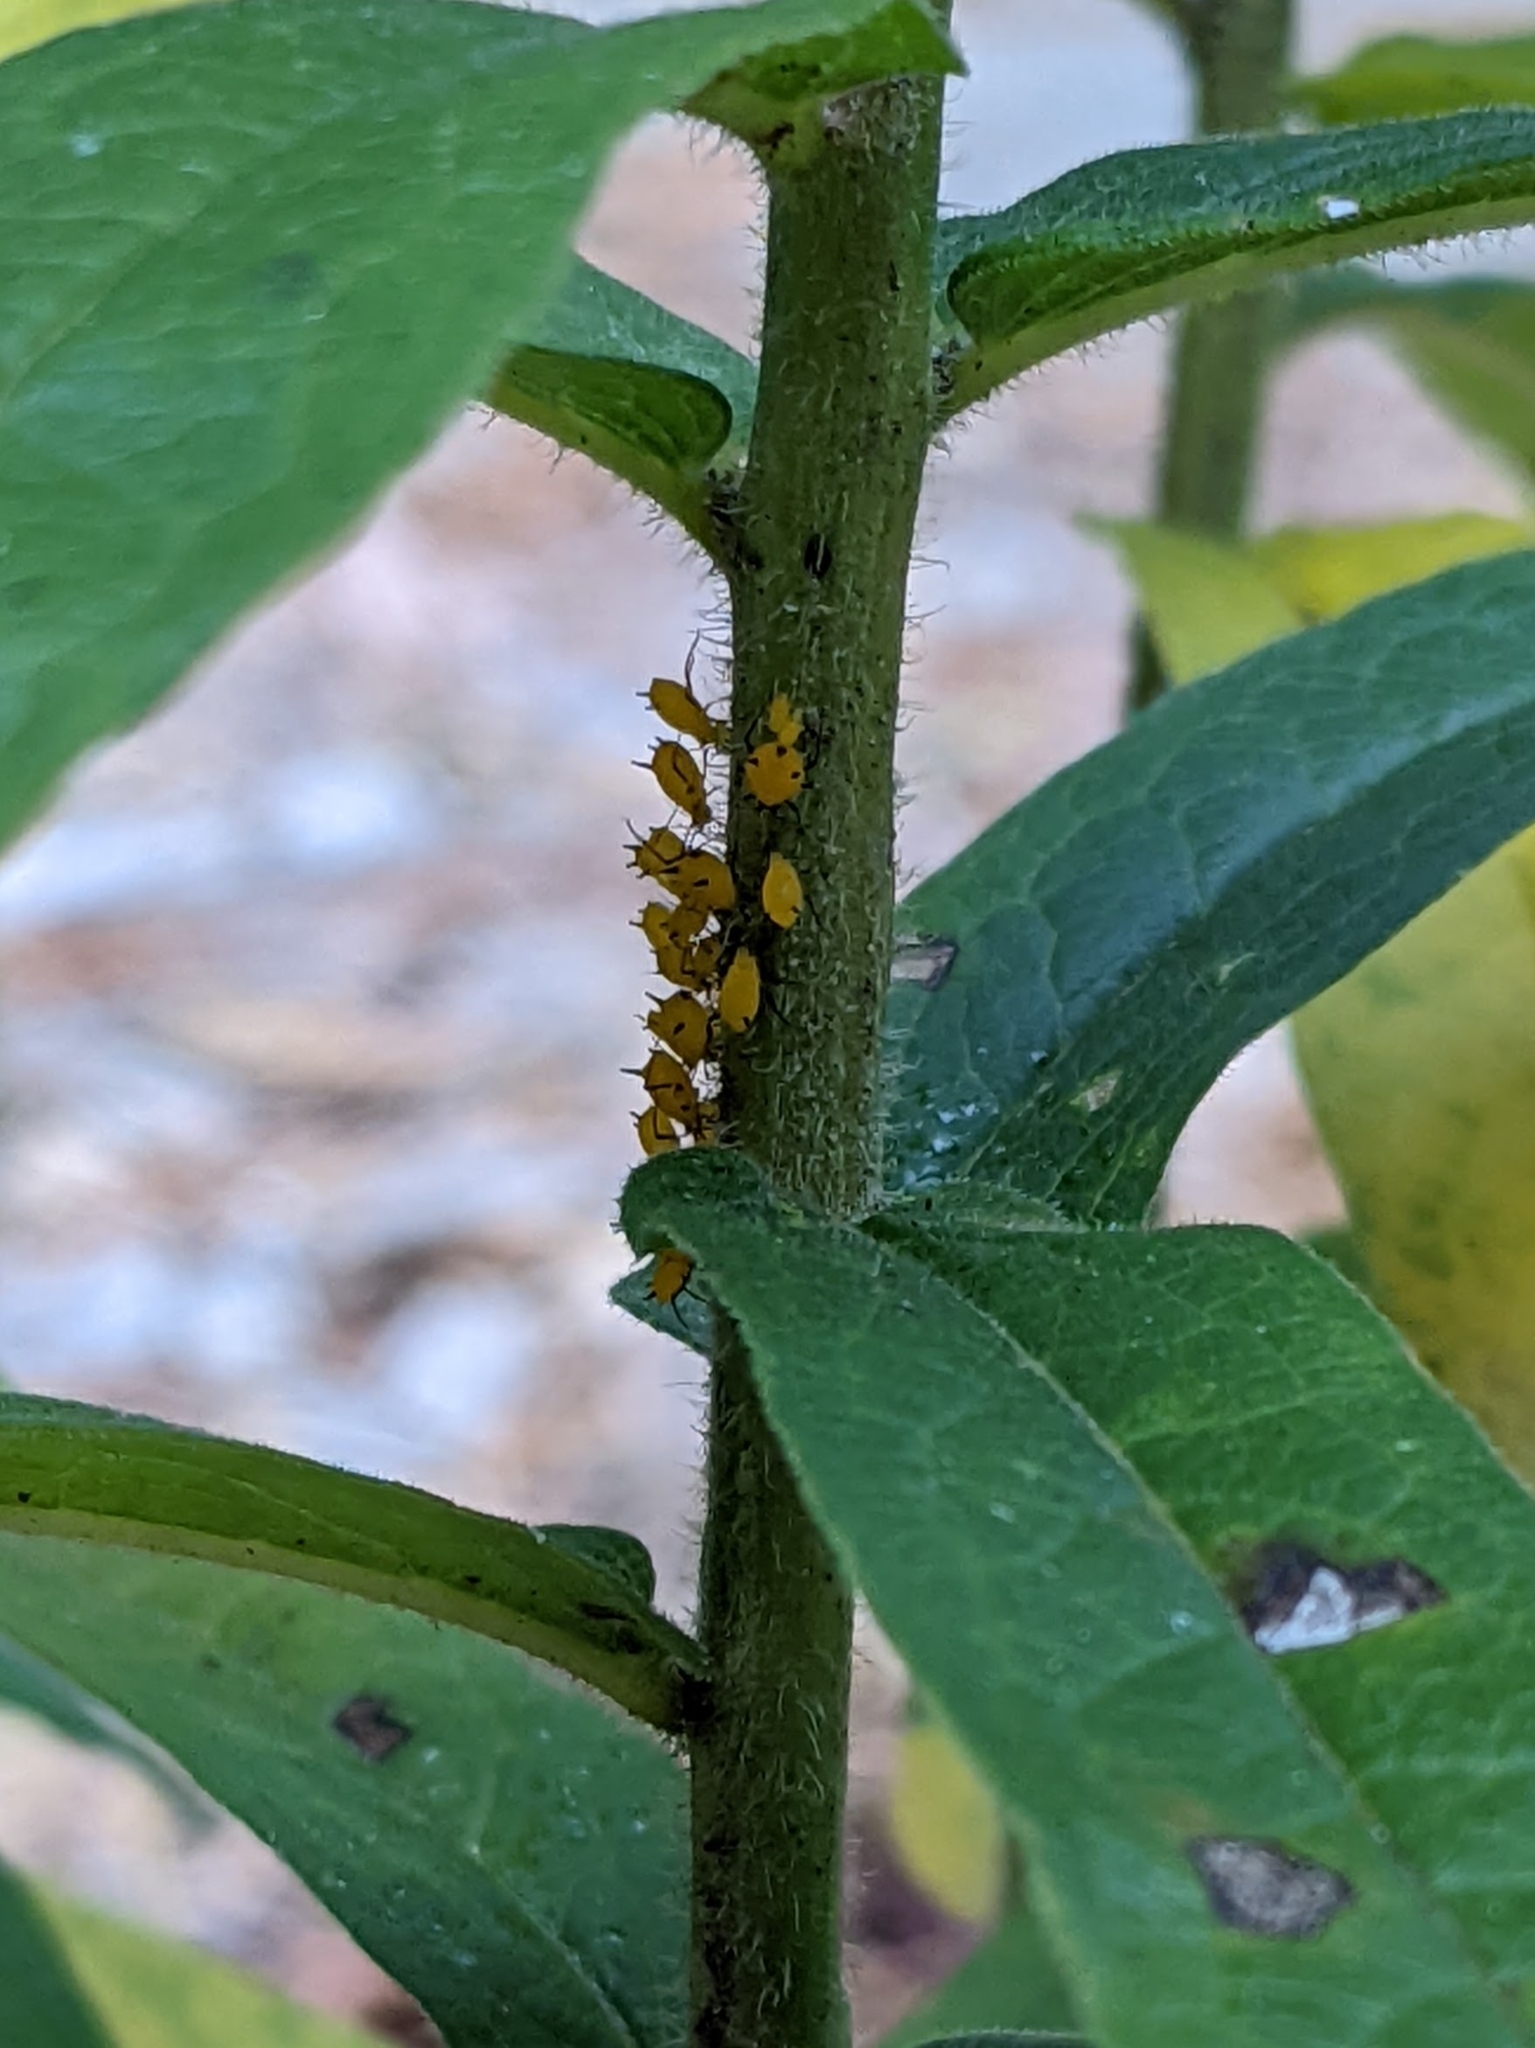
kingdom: Animalia
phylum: Arthropoda
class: Insecta
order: Hemiptera
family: Aphididae
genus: Aphis
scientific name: Aphis nerii
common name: Oleander aphid
